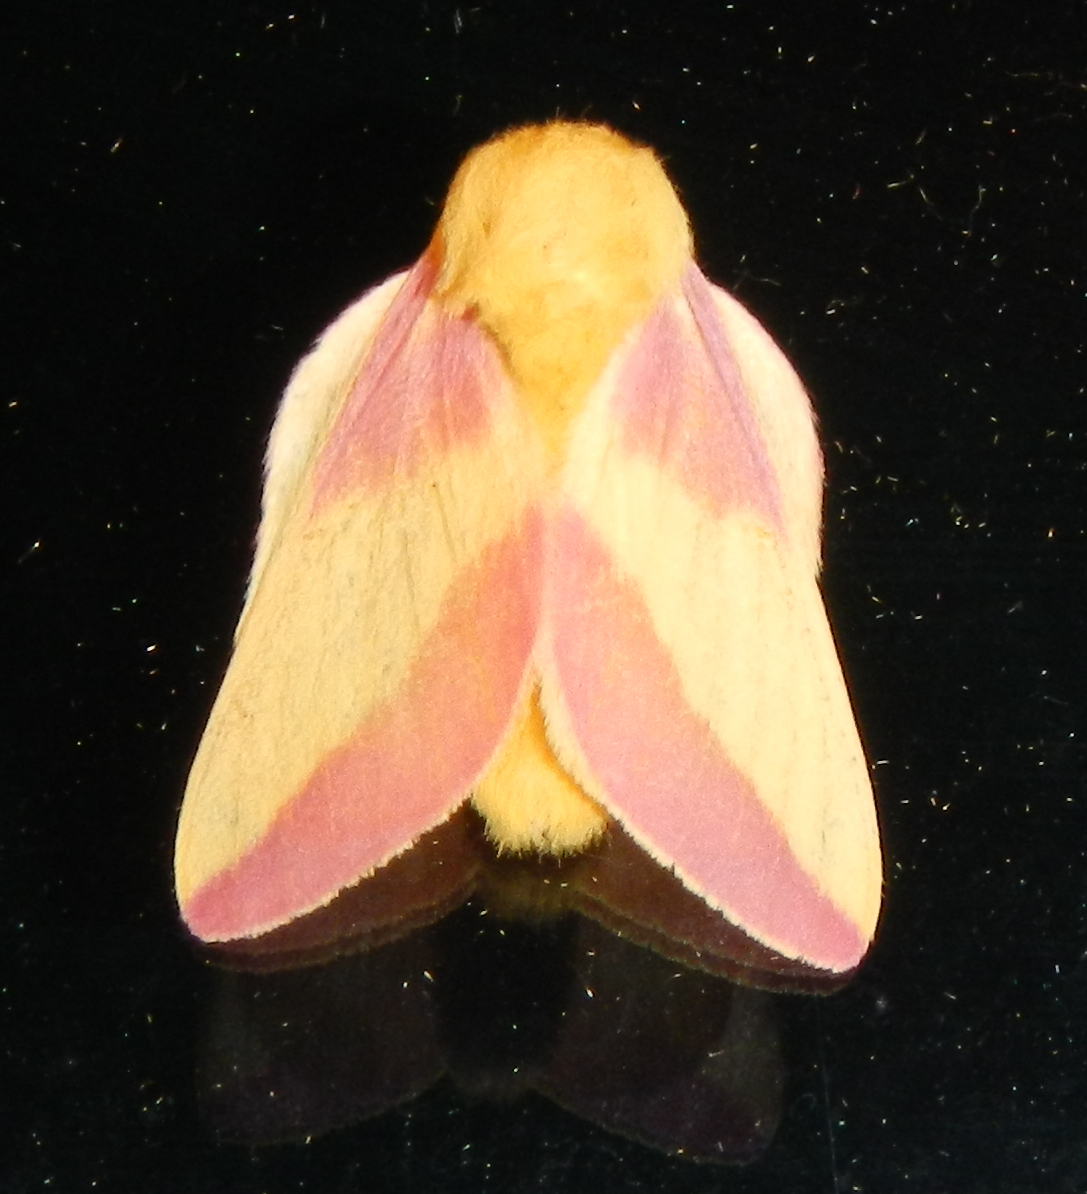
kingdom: Animalia
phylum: Arthropoda
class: Insecta
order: Lepidoptera
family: Saturniidae
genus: Dryocampa
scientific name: Dryocampa rubicunda
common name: Rosy maple moth
